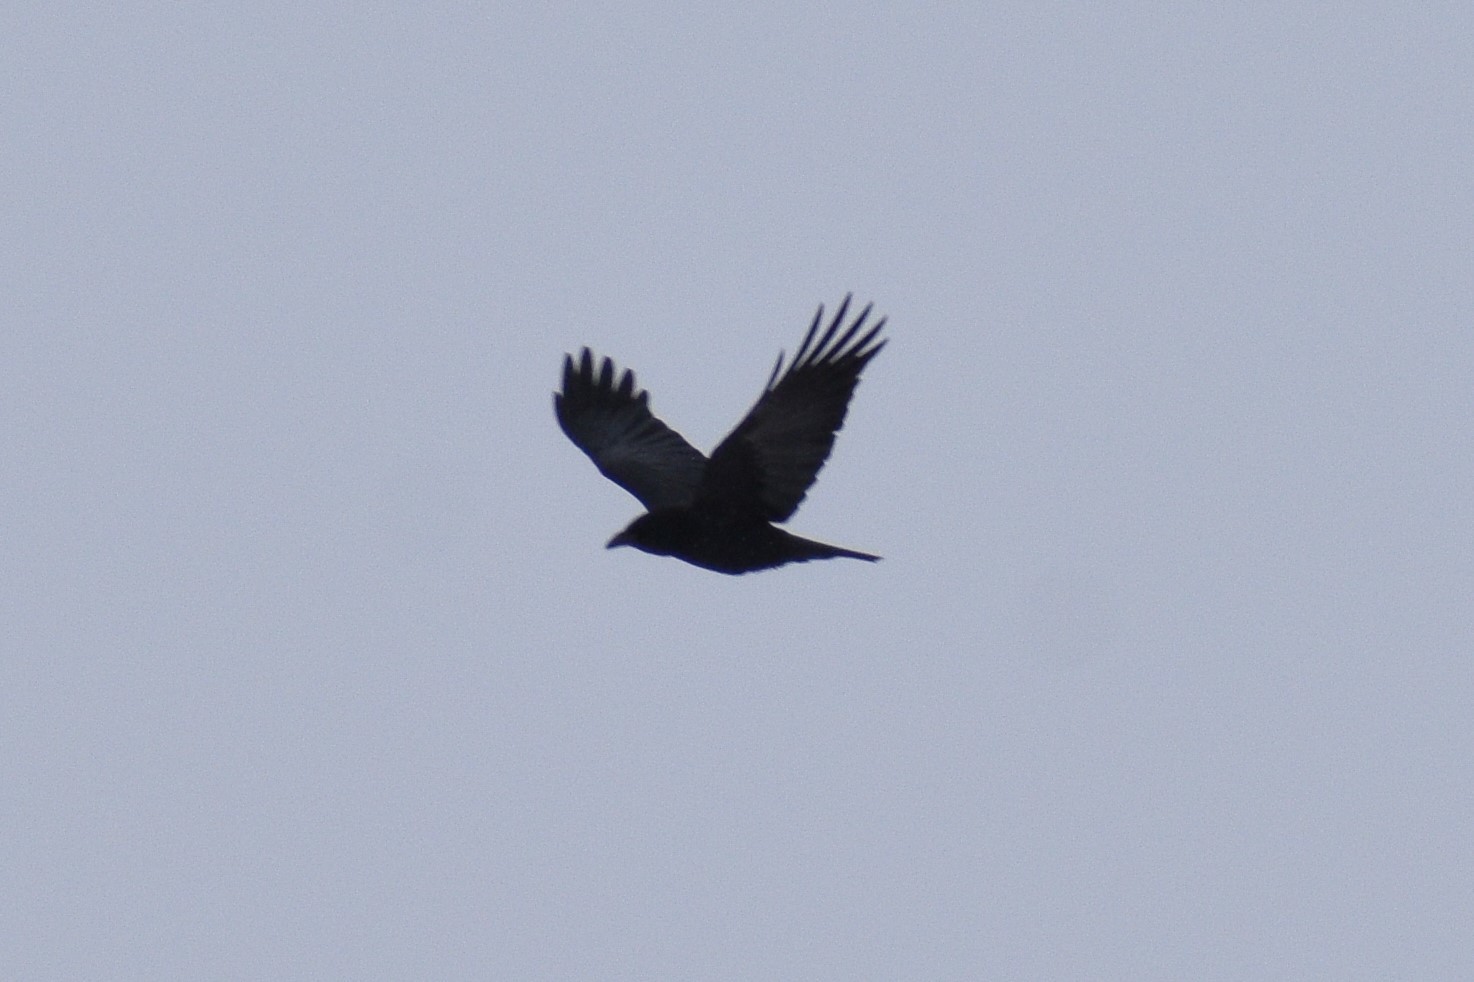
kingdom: Animalia
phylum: Chordata
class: Aves
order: Passeriformes
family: Corvidae
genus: Corvus
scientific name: Corvus brachyrhynchos
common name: American crow
